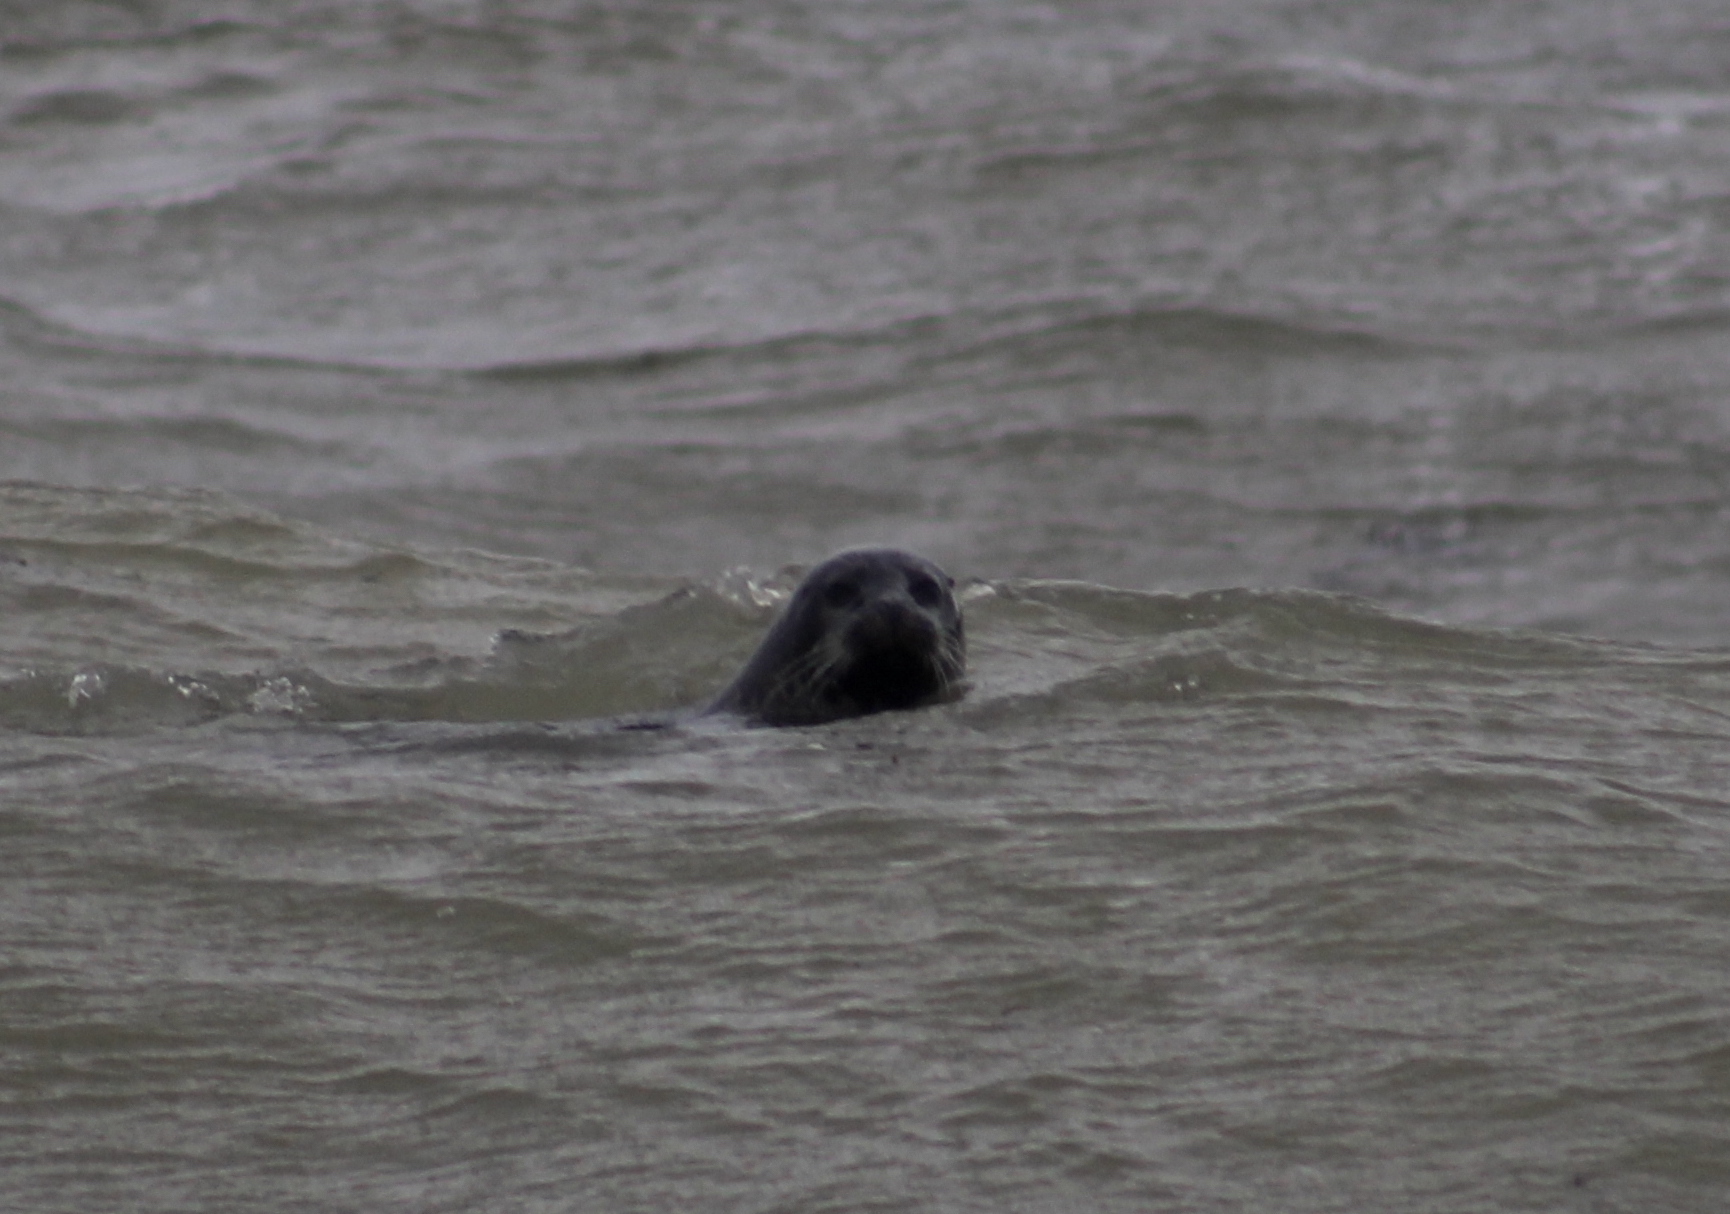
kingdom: Animalia
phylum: Chordata
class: Mammalia
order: Carnivora
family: Phocidae
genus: Phoca
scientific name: Phoca vitulina
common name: Harbor seal
